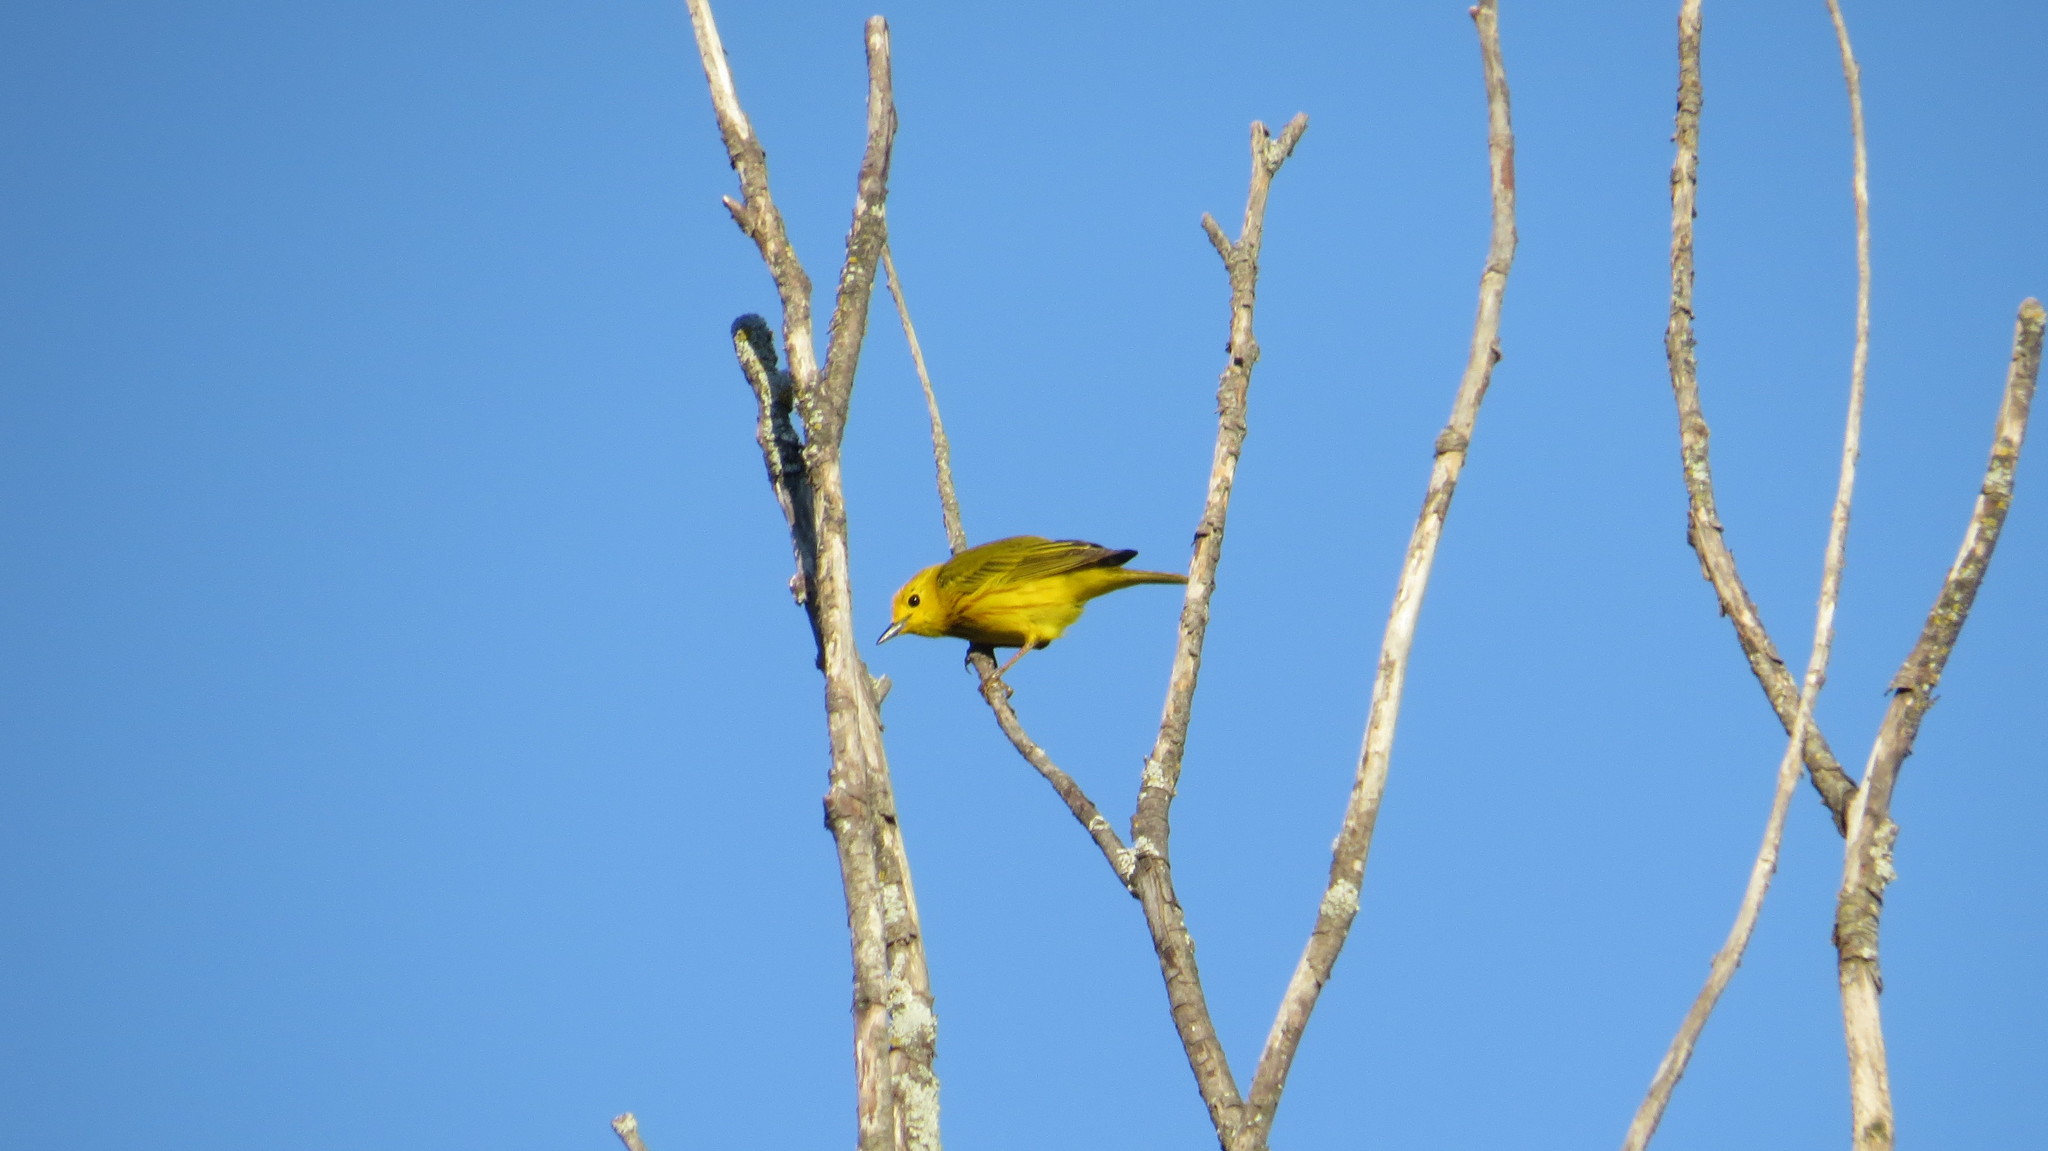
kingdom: Animalia
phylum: Chordata
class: Aves
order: Passeriformes
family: Parulidae
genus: Setophaga
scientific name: Setophaga petechia
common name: Yellow warbler
